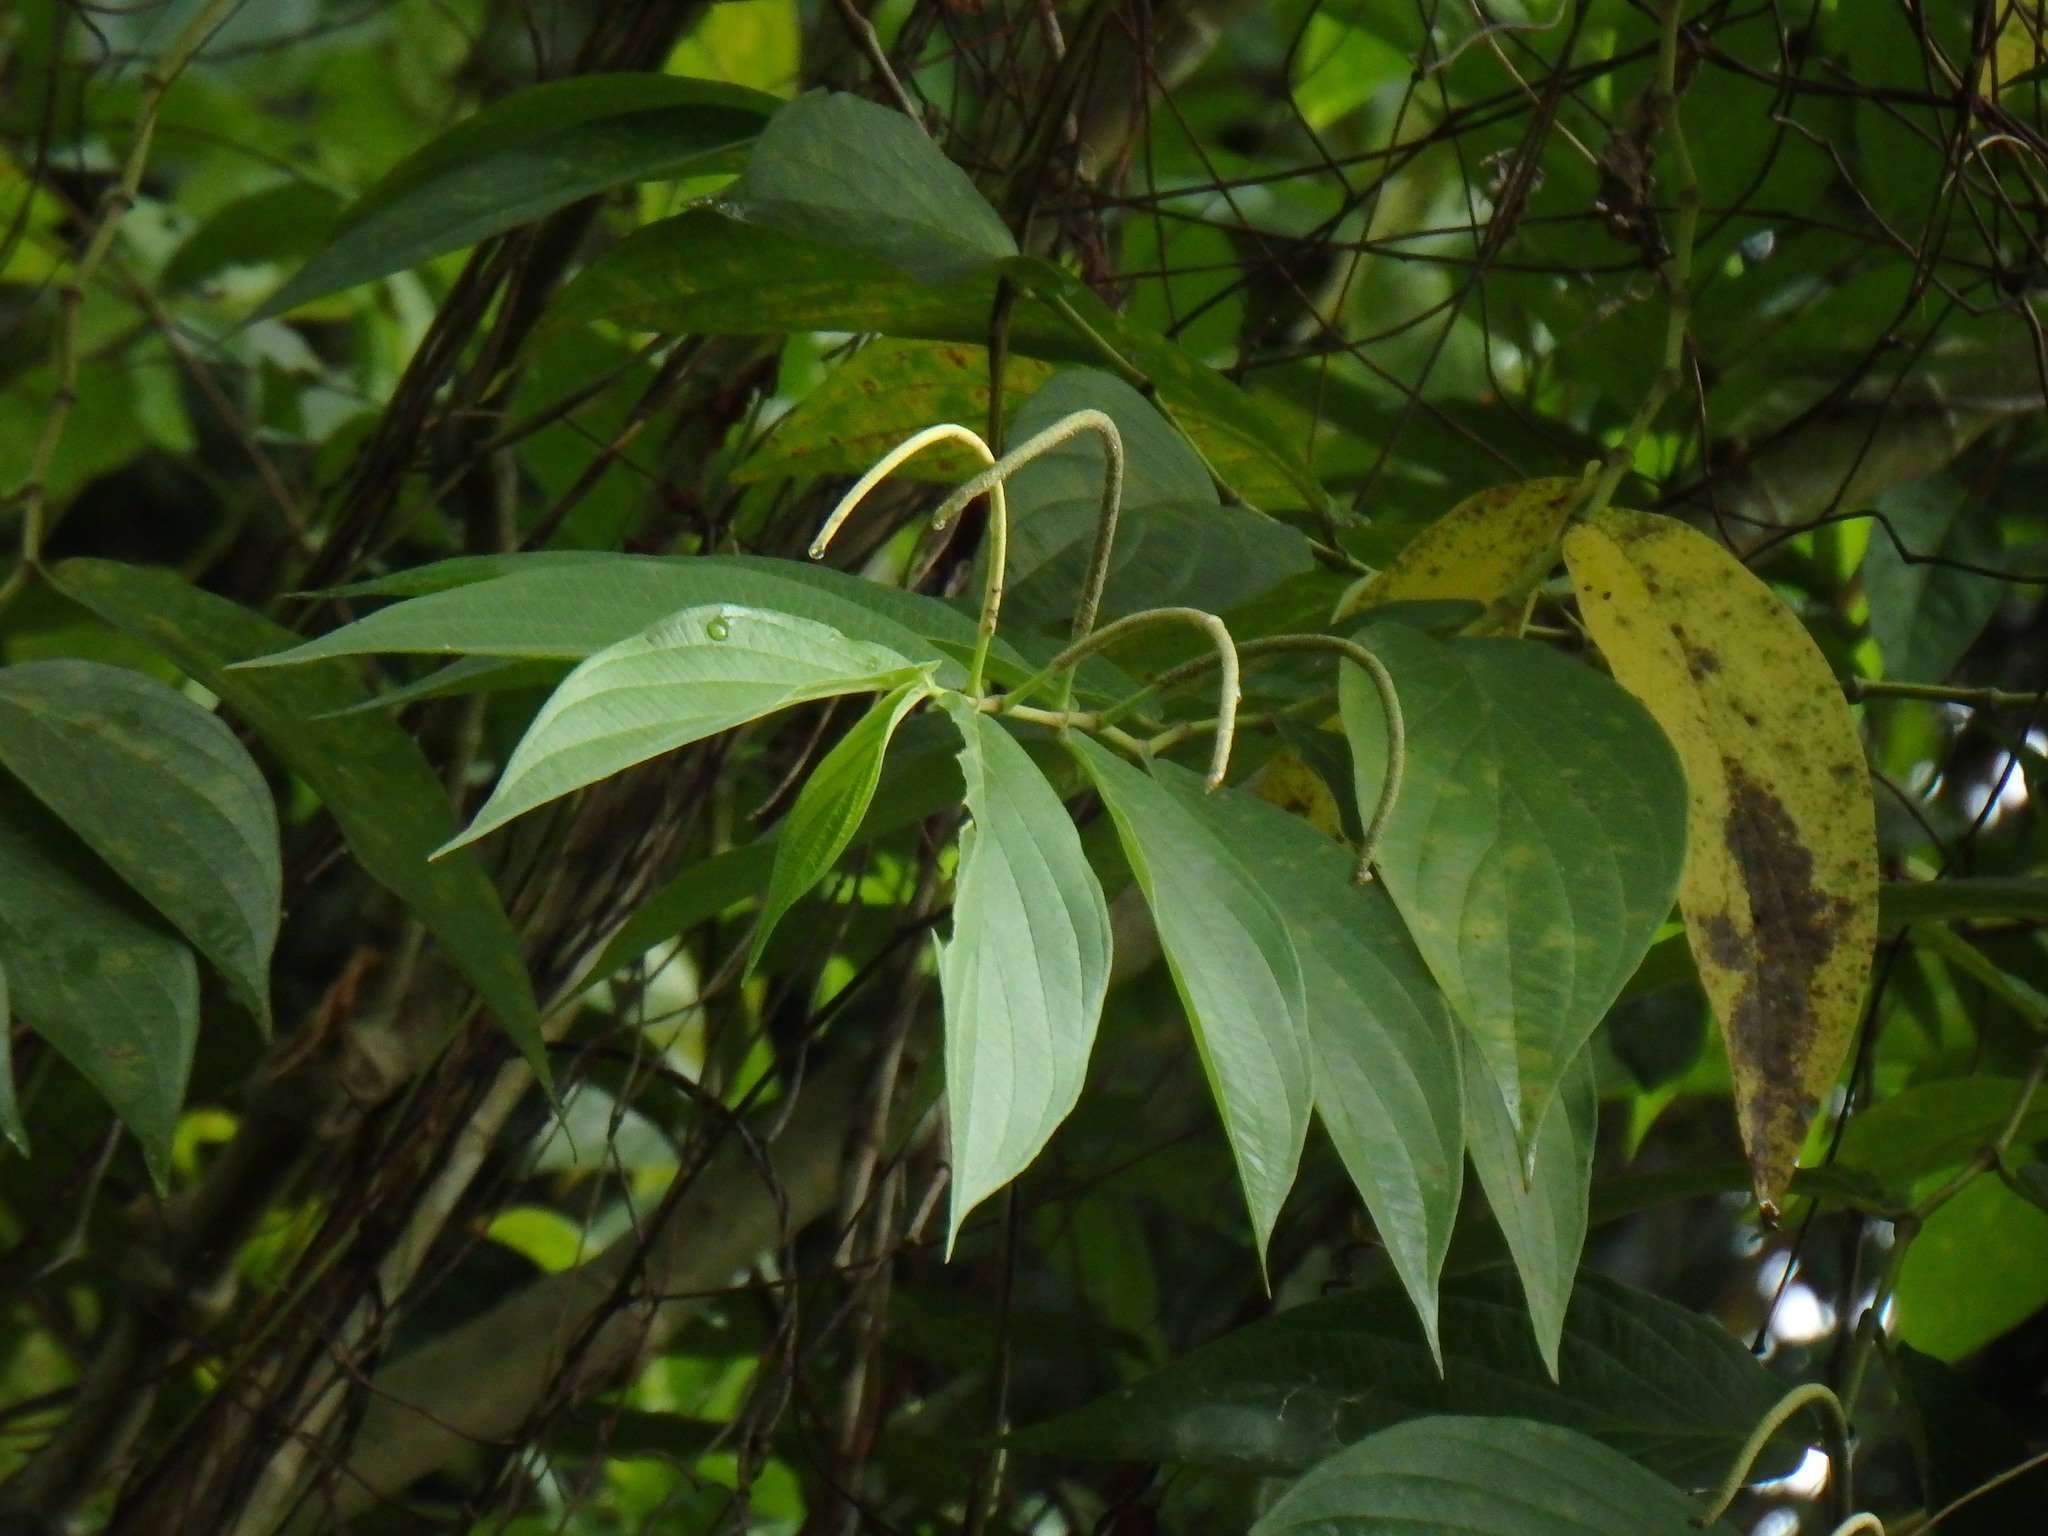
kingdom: Plantae
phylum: Tracheophyta
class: Magnoliopsida
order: Piperales
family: Piperaceae
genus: Piper
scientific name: Piper aduncum
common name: Spiked pepper
